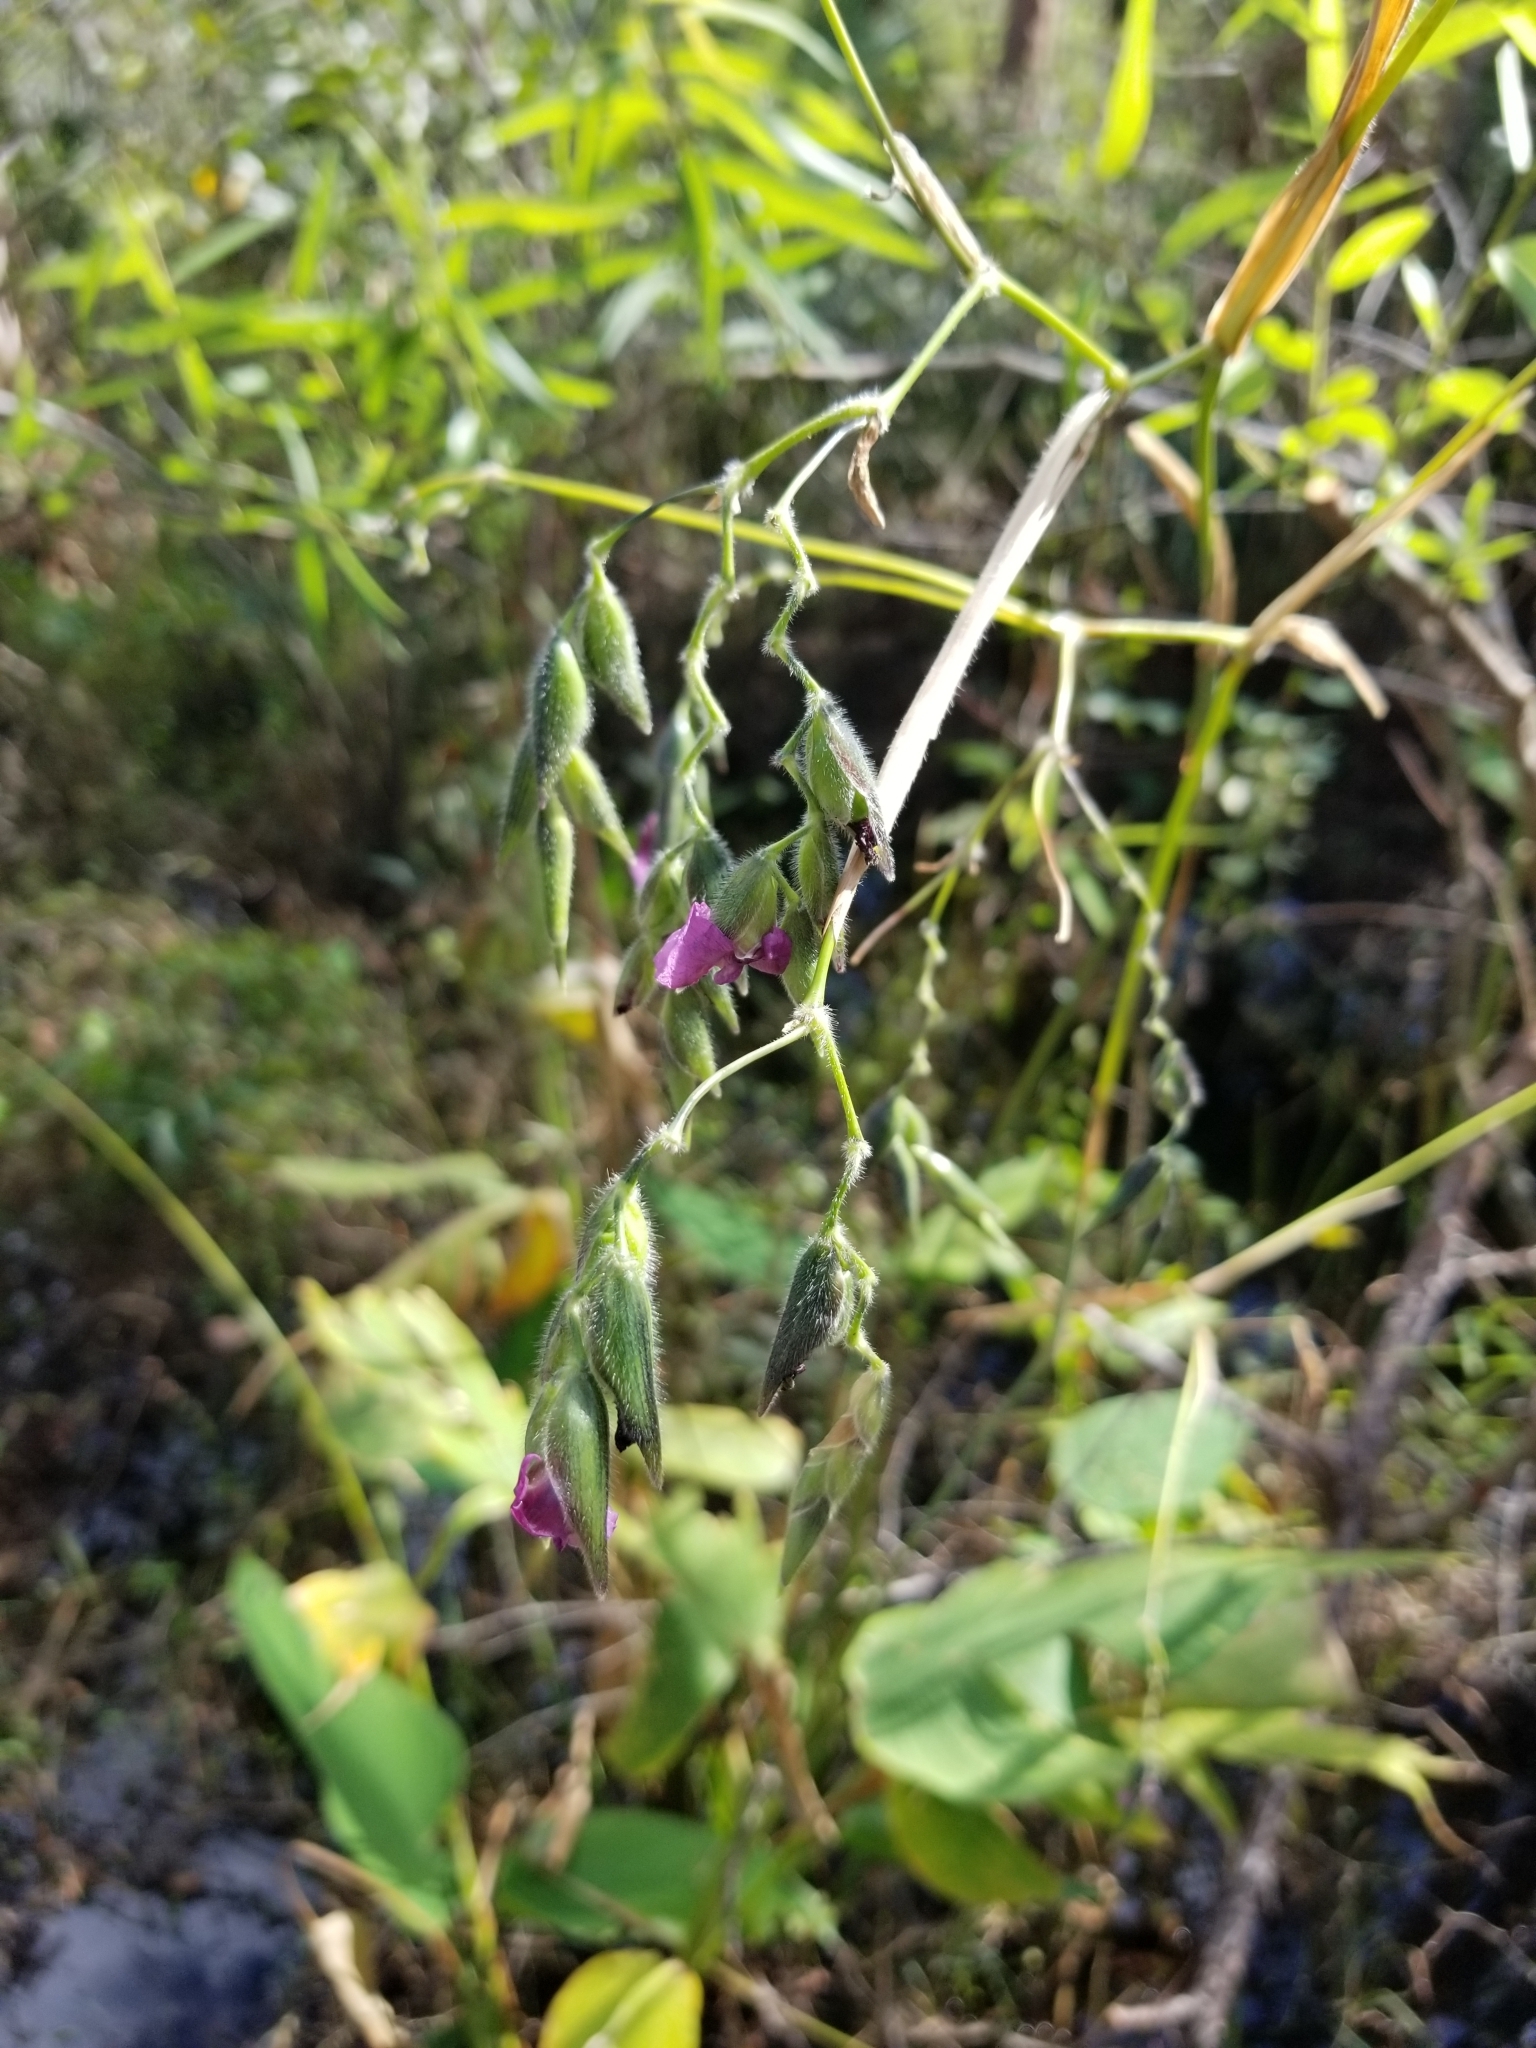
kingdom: Plantae
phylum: Tracheophyta
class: Liliopsida
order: Zingiberales
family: Marantaceae
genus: Thalia
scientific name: Thalia geniculata
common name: Arrowroot
